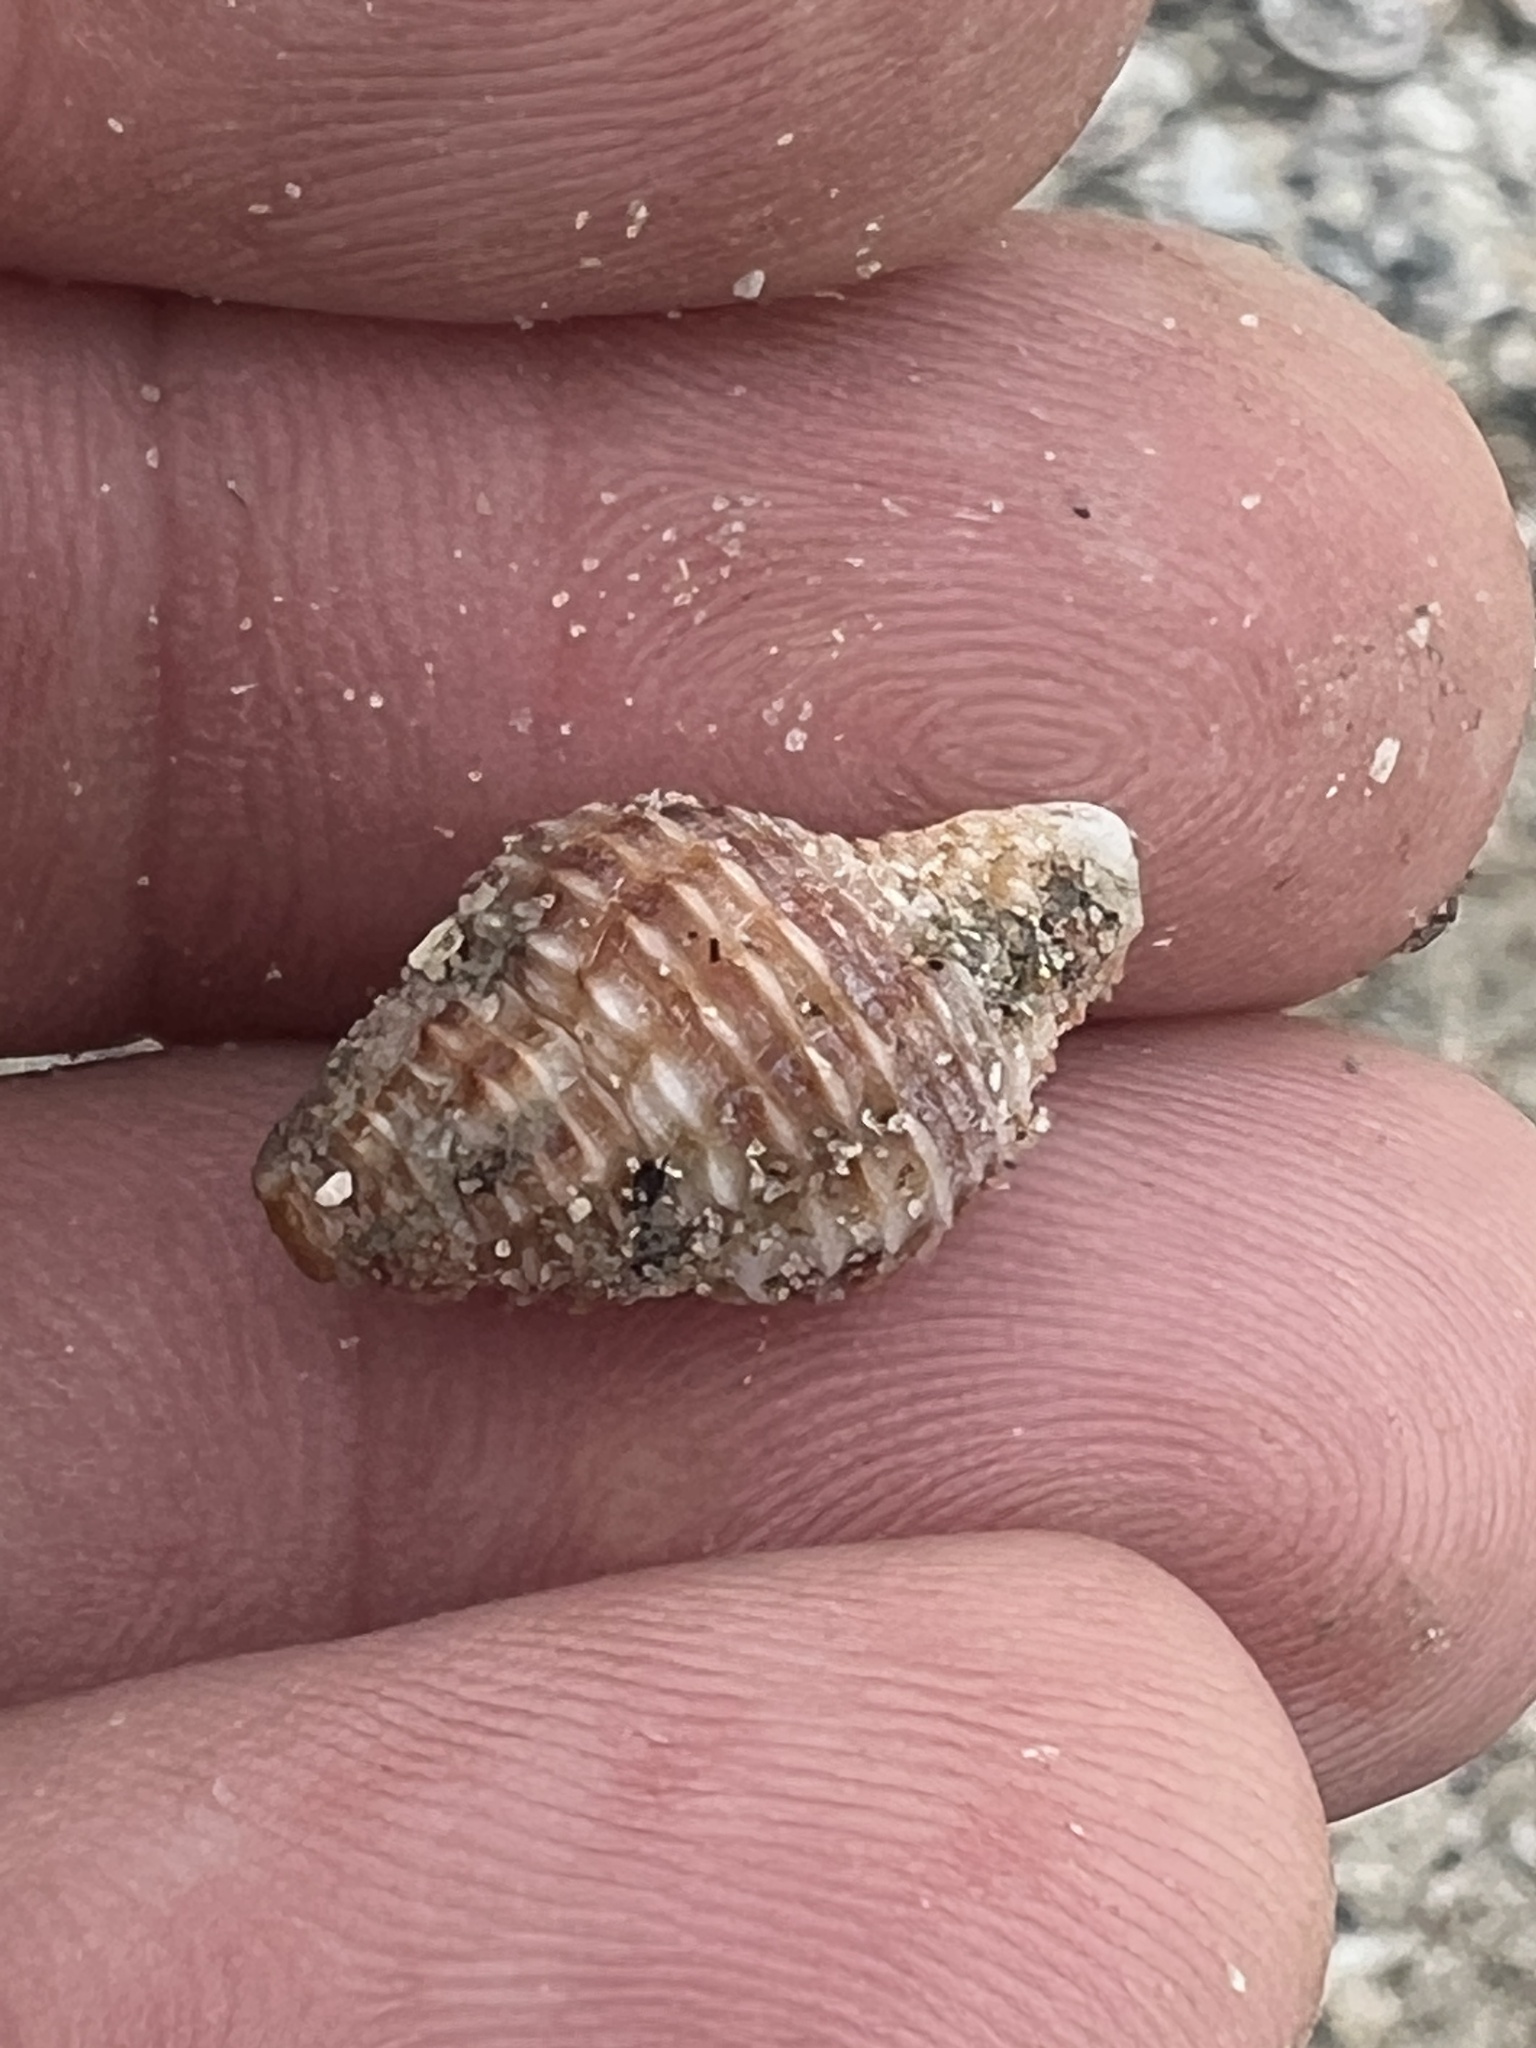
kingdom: Animalia
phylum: Mollusca
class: Gastropoda
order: Neogastropoda
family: Pisaniidae
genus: Solenosteira
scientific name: Solenosteira cancellaria
